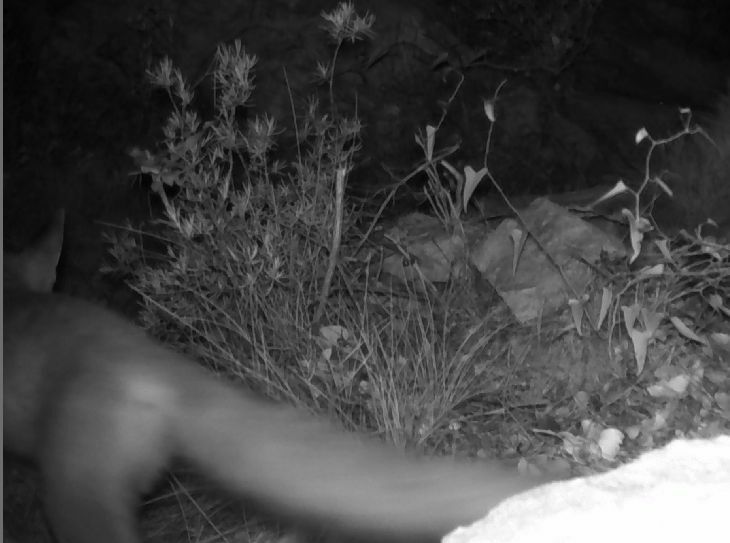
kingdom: Animalia
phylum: Chordata
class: Mammalia
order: Carnivora
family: Canidae
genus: Vulpes
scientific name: Vulpes vulpes
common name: Red fox
